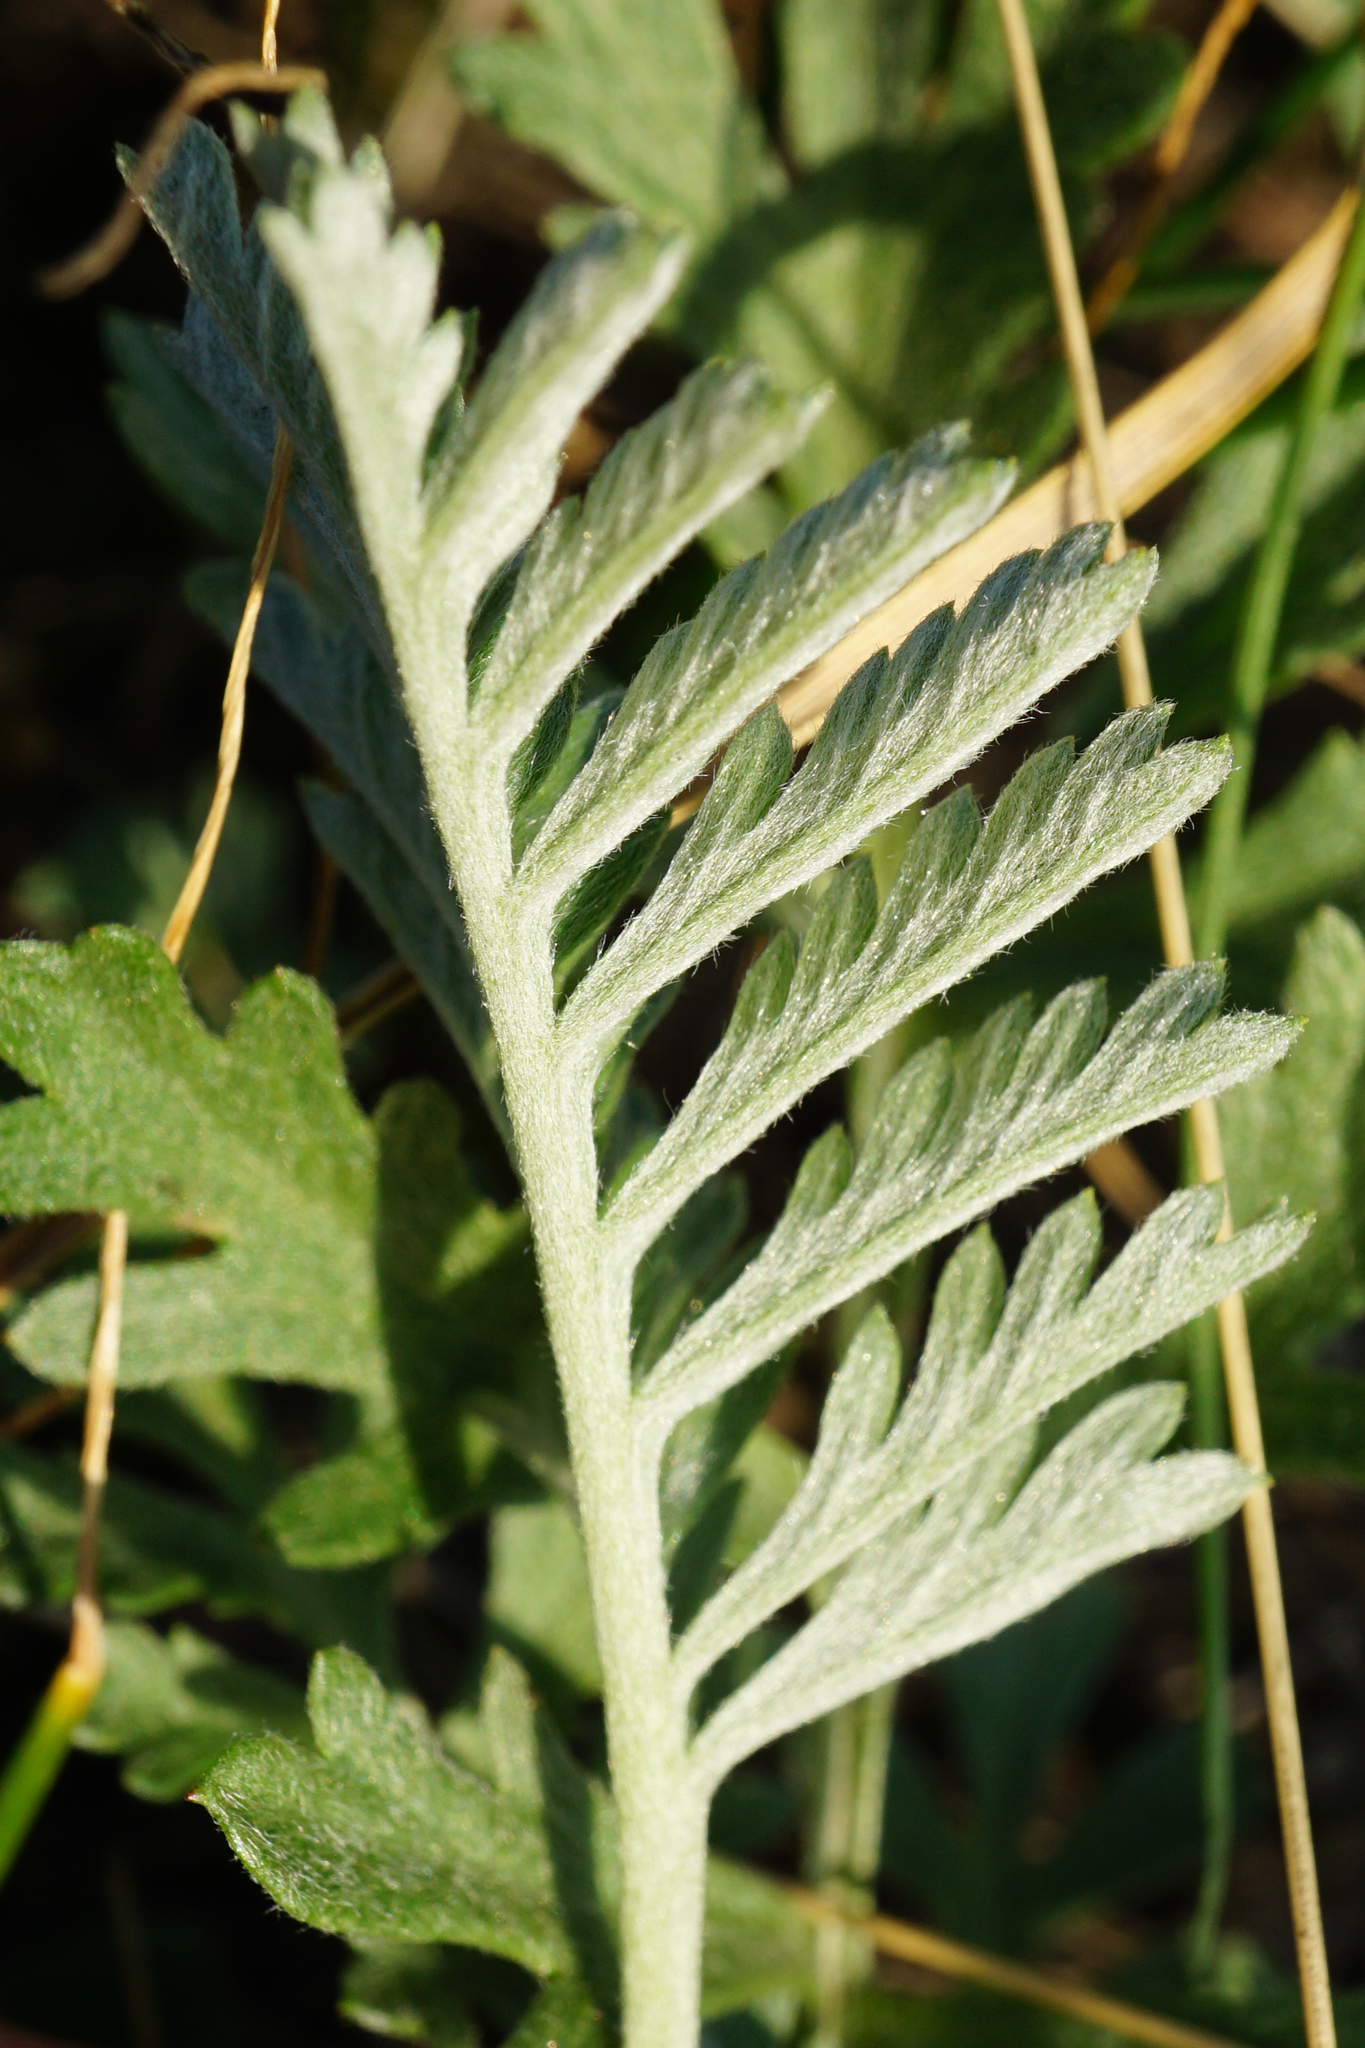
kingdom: Plantae
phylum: Tracheophyta
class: Magnoliopsida
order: Asterales
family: Asteraceae
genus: Artemisia
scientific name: Artemisia pancicii
